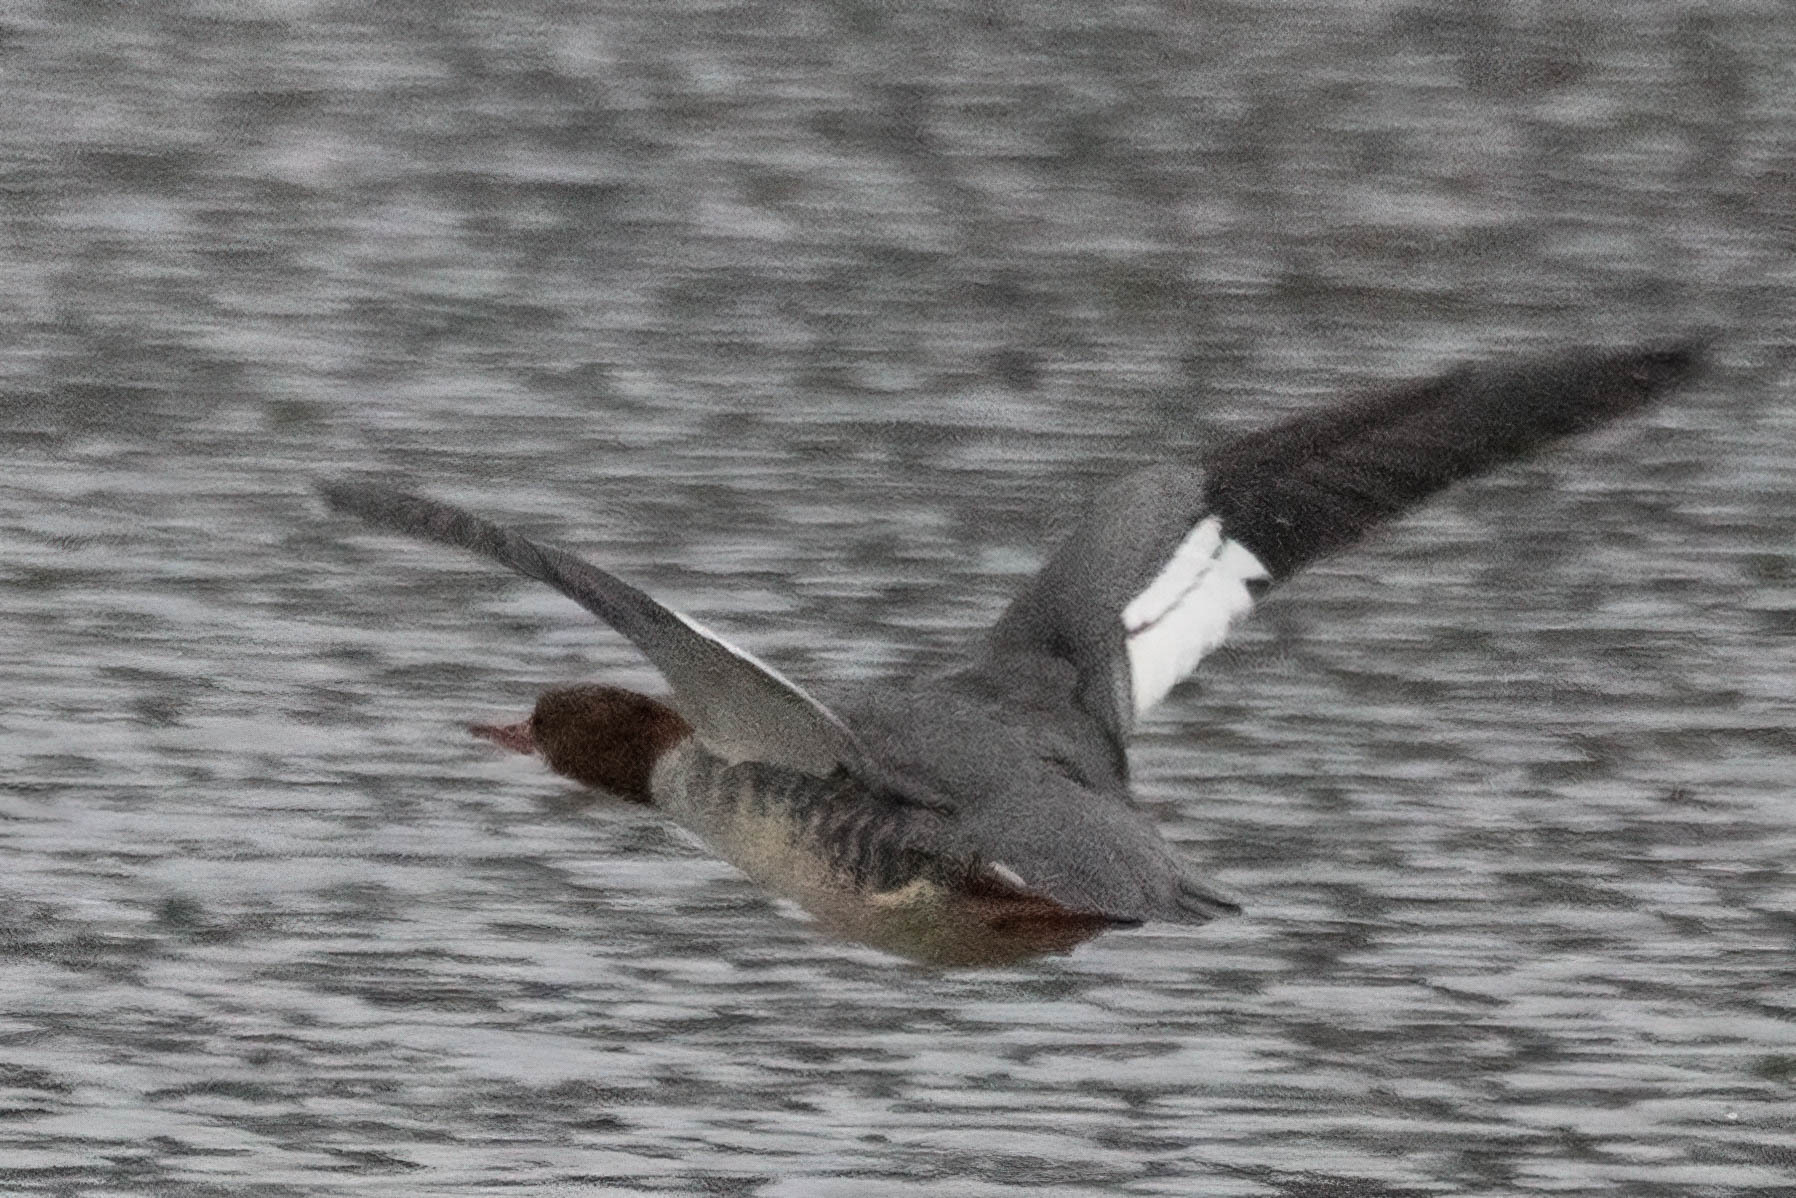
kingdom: Animalia
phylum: Chordata
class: Aves
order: Anseriformes
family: Anatidae
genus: Mergus
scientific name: Mergus merganser
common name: Common merganser
